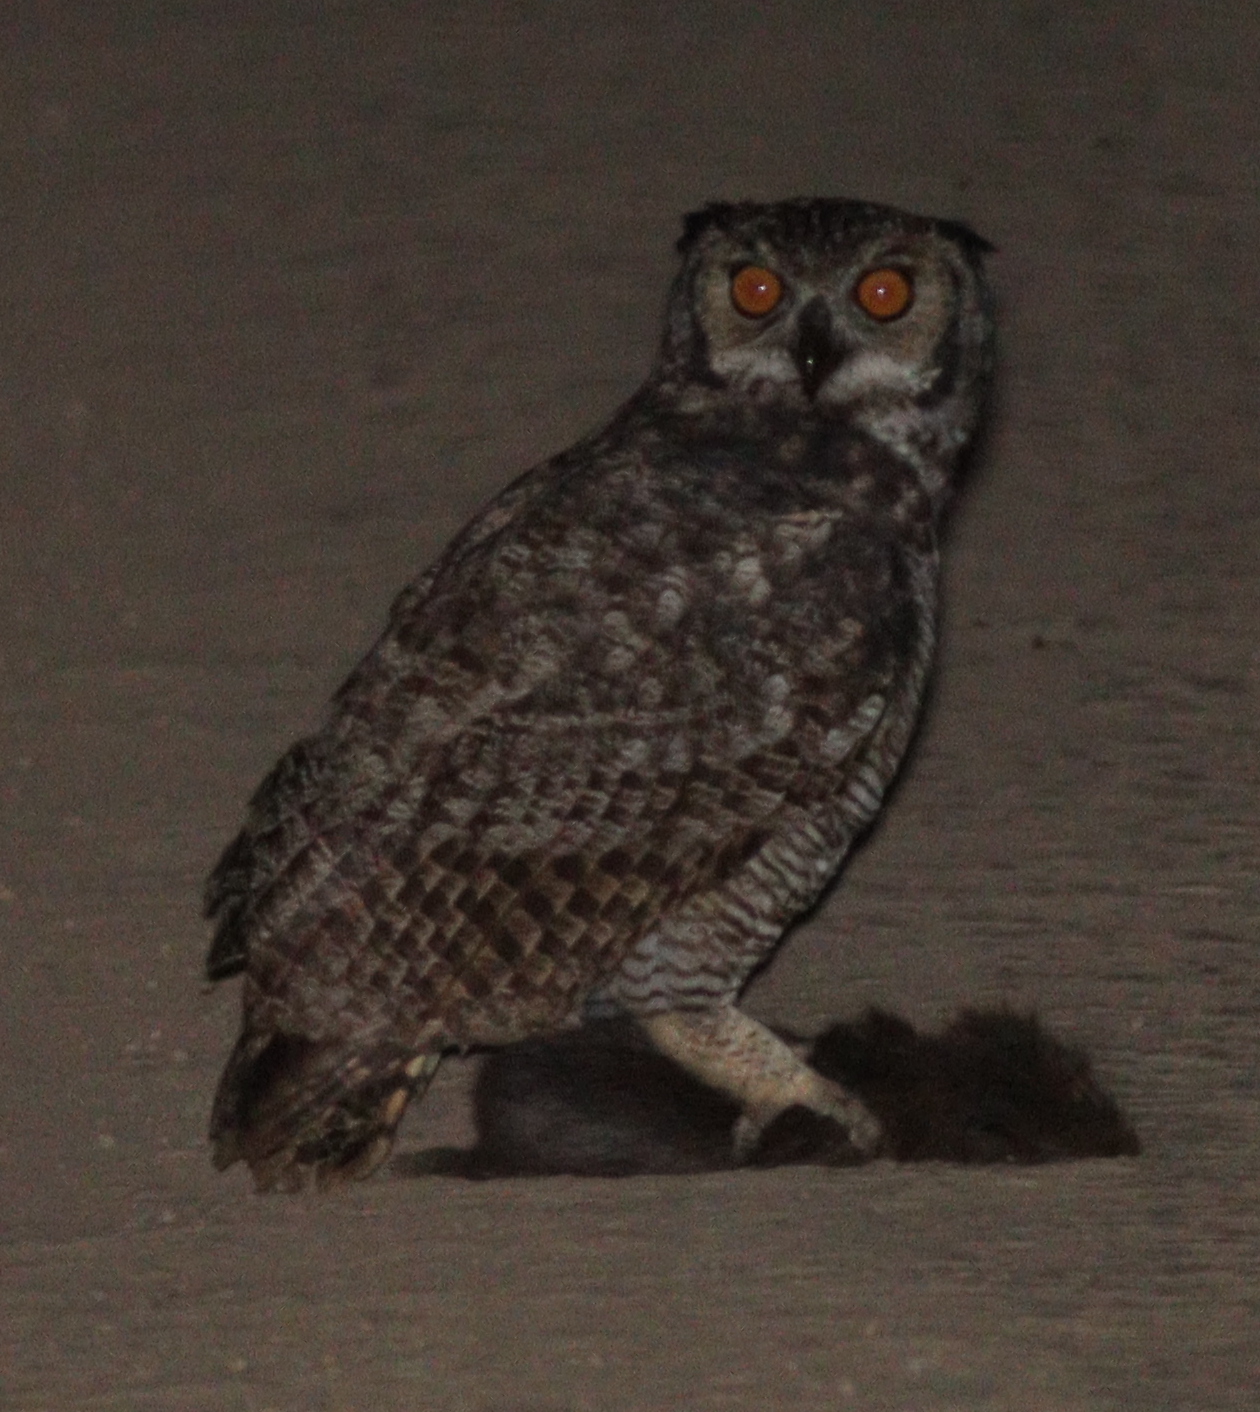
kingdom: Animalia
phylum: Chordata
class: Aves
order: Strigiformes
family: Strigidae
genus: Bubo
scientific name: Bubo virginianus
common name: Great horned owl
